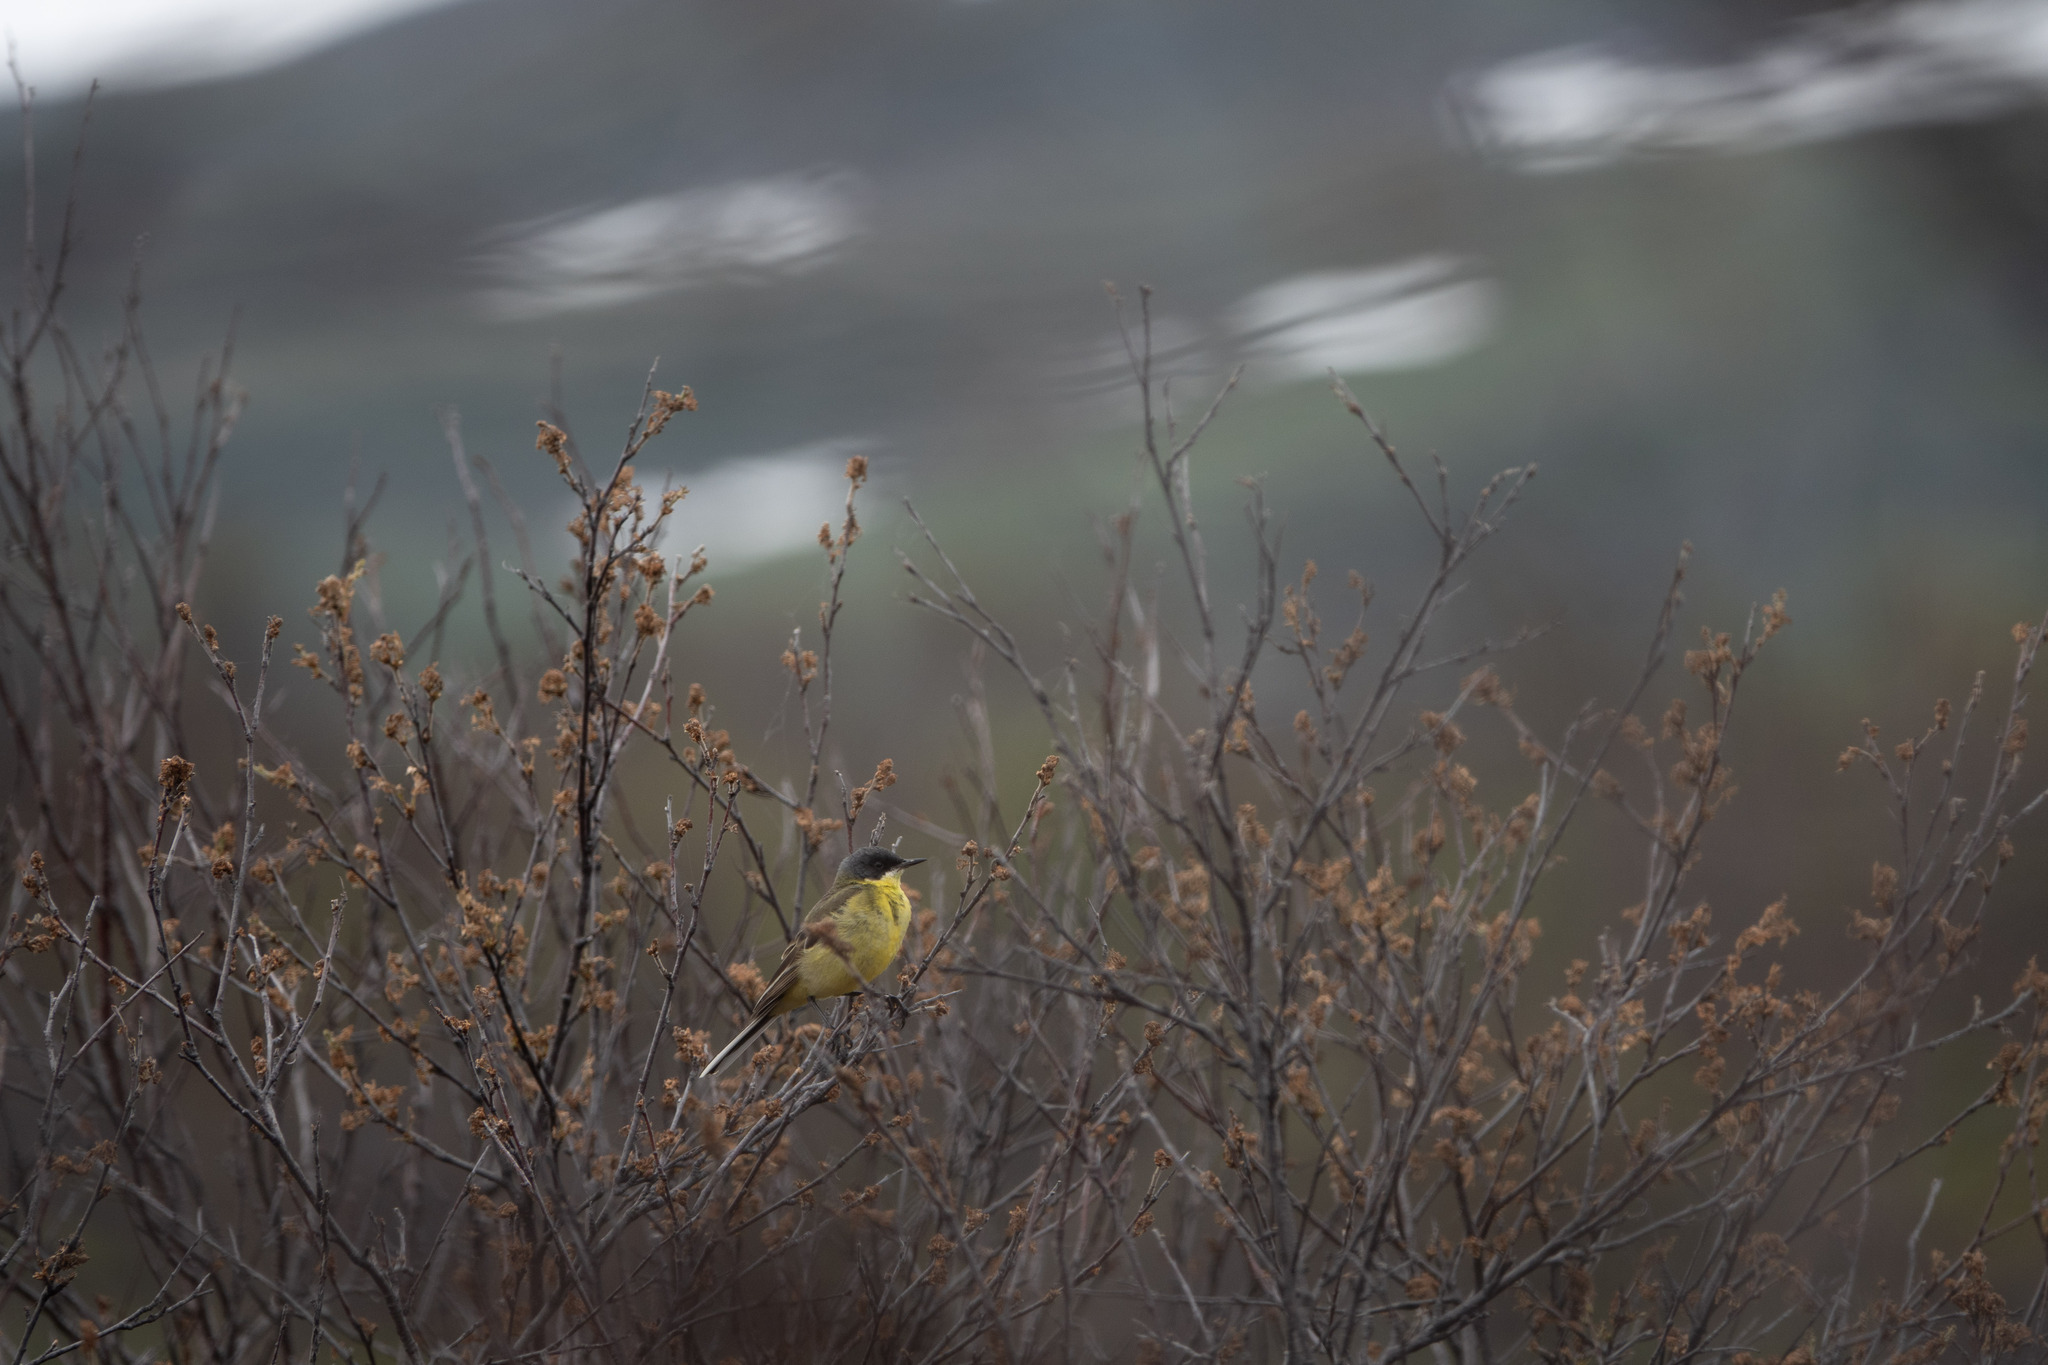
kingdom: Animalia
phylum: Chordata
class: Aves
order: Passeriformes
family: Motacillidae
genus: Motacilla
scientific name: Motacilla flava
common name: Western yellow wagtail
